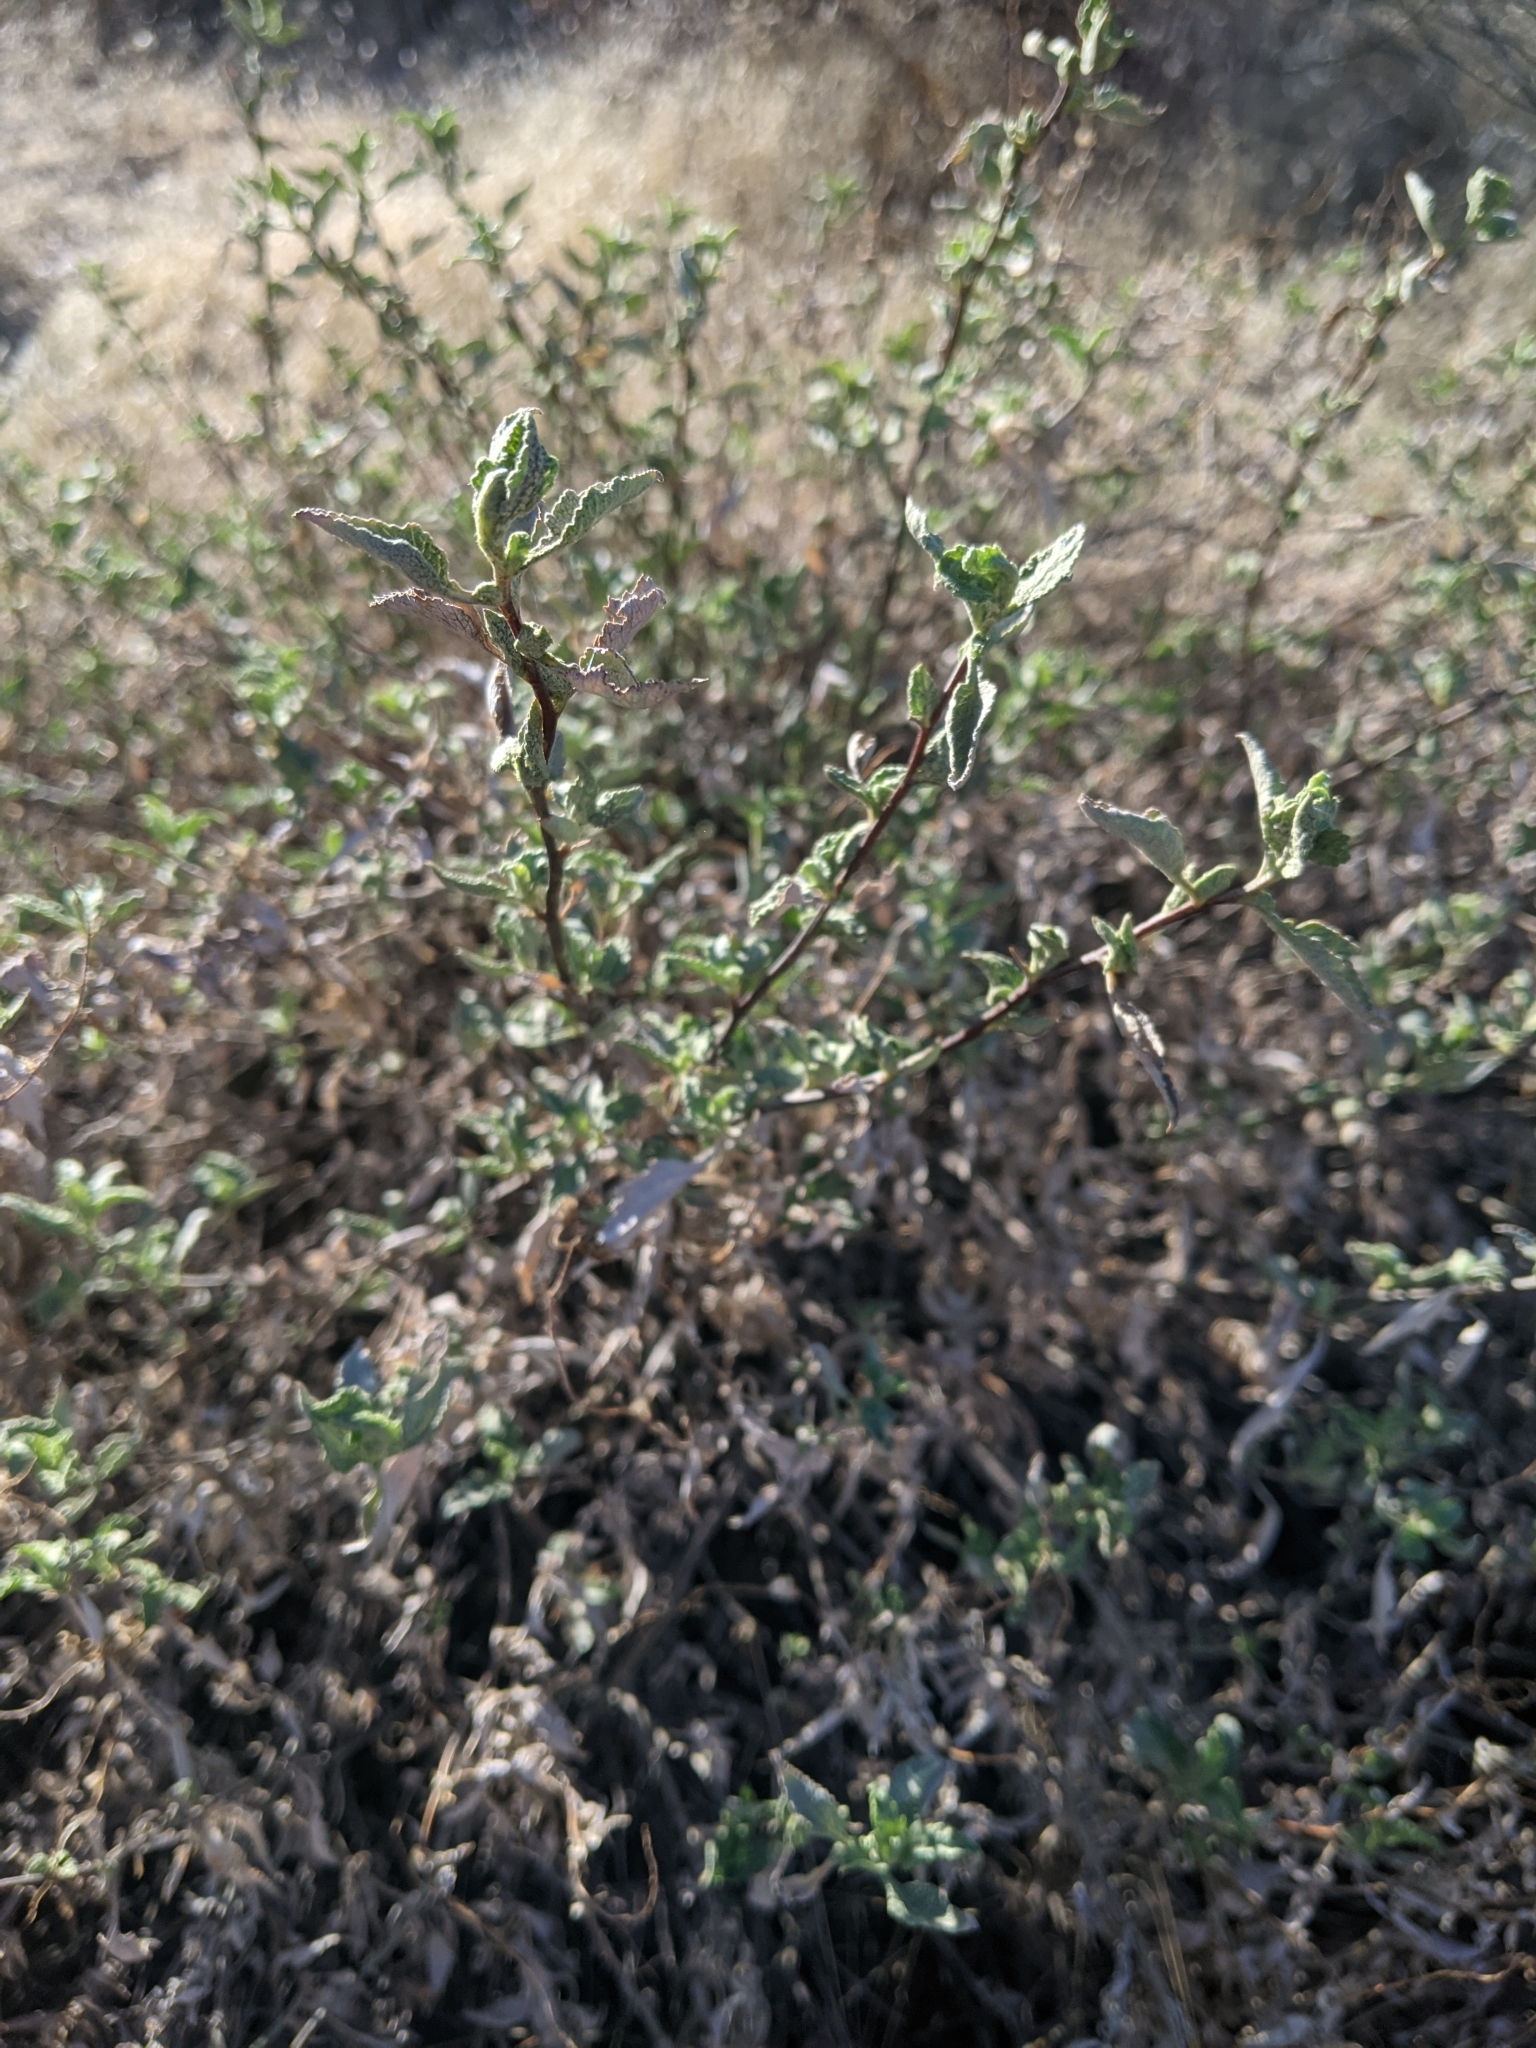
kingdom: Plantae
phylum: Tracheophyta
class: Magnoliopsida
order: Asterales
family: Asteraceae
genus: Ambrosia
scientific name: Ambrosia deltoidea
